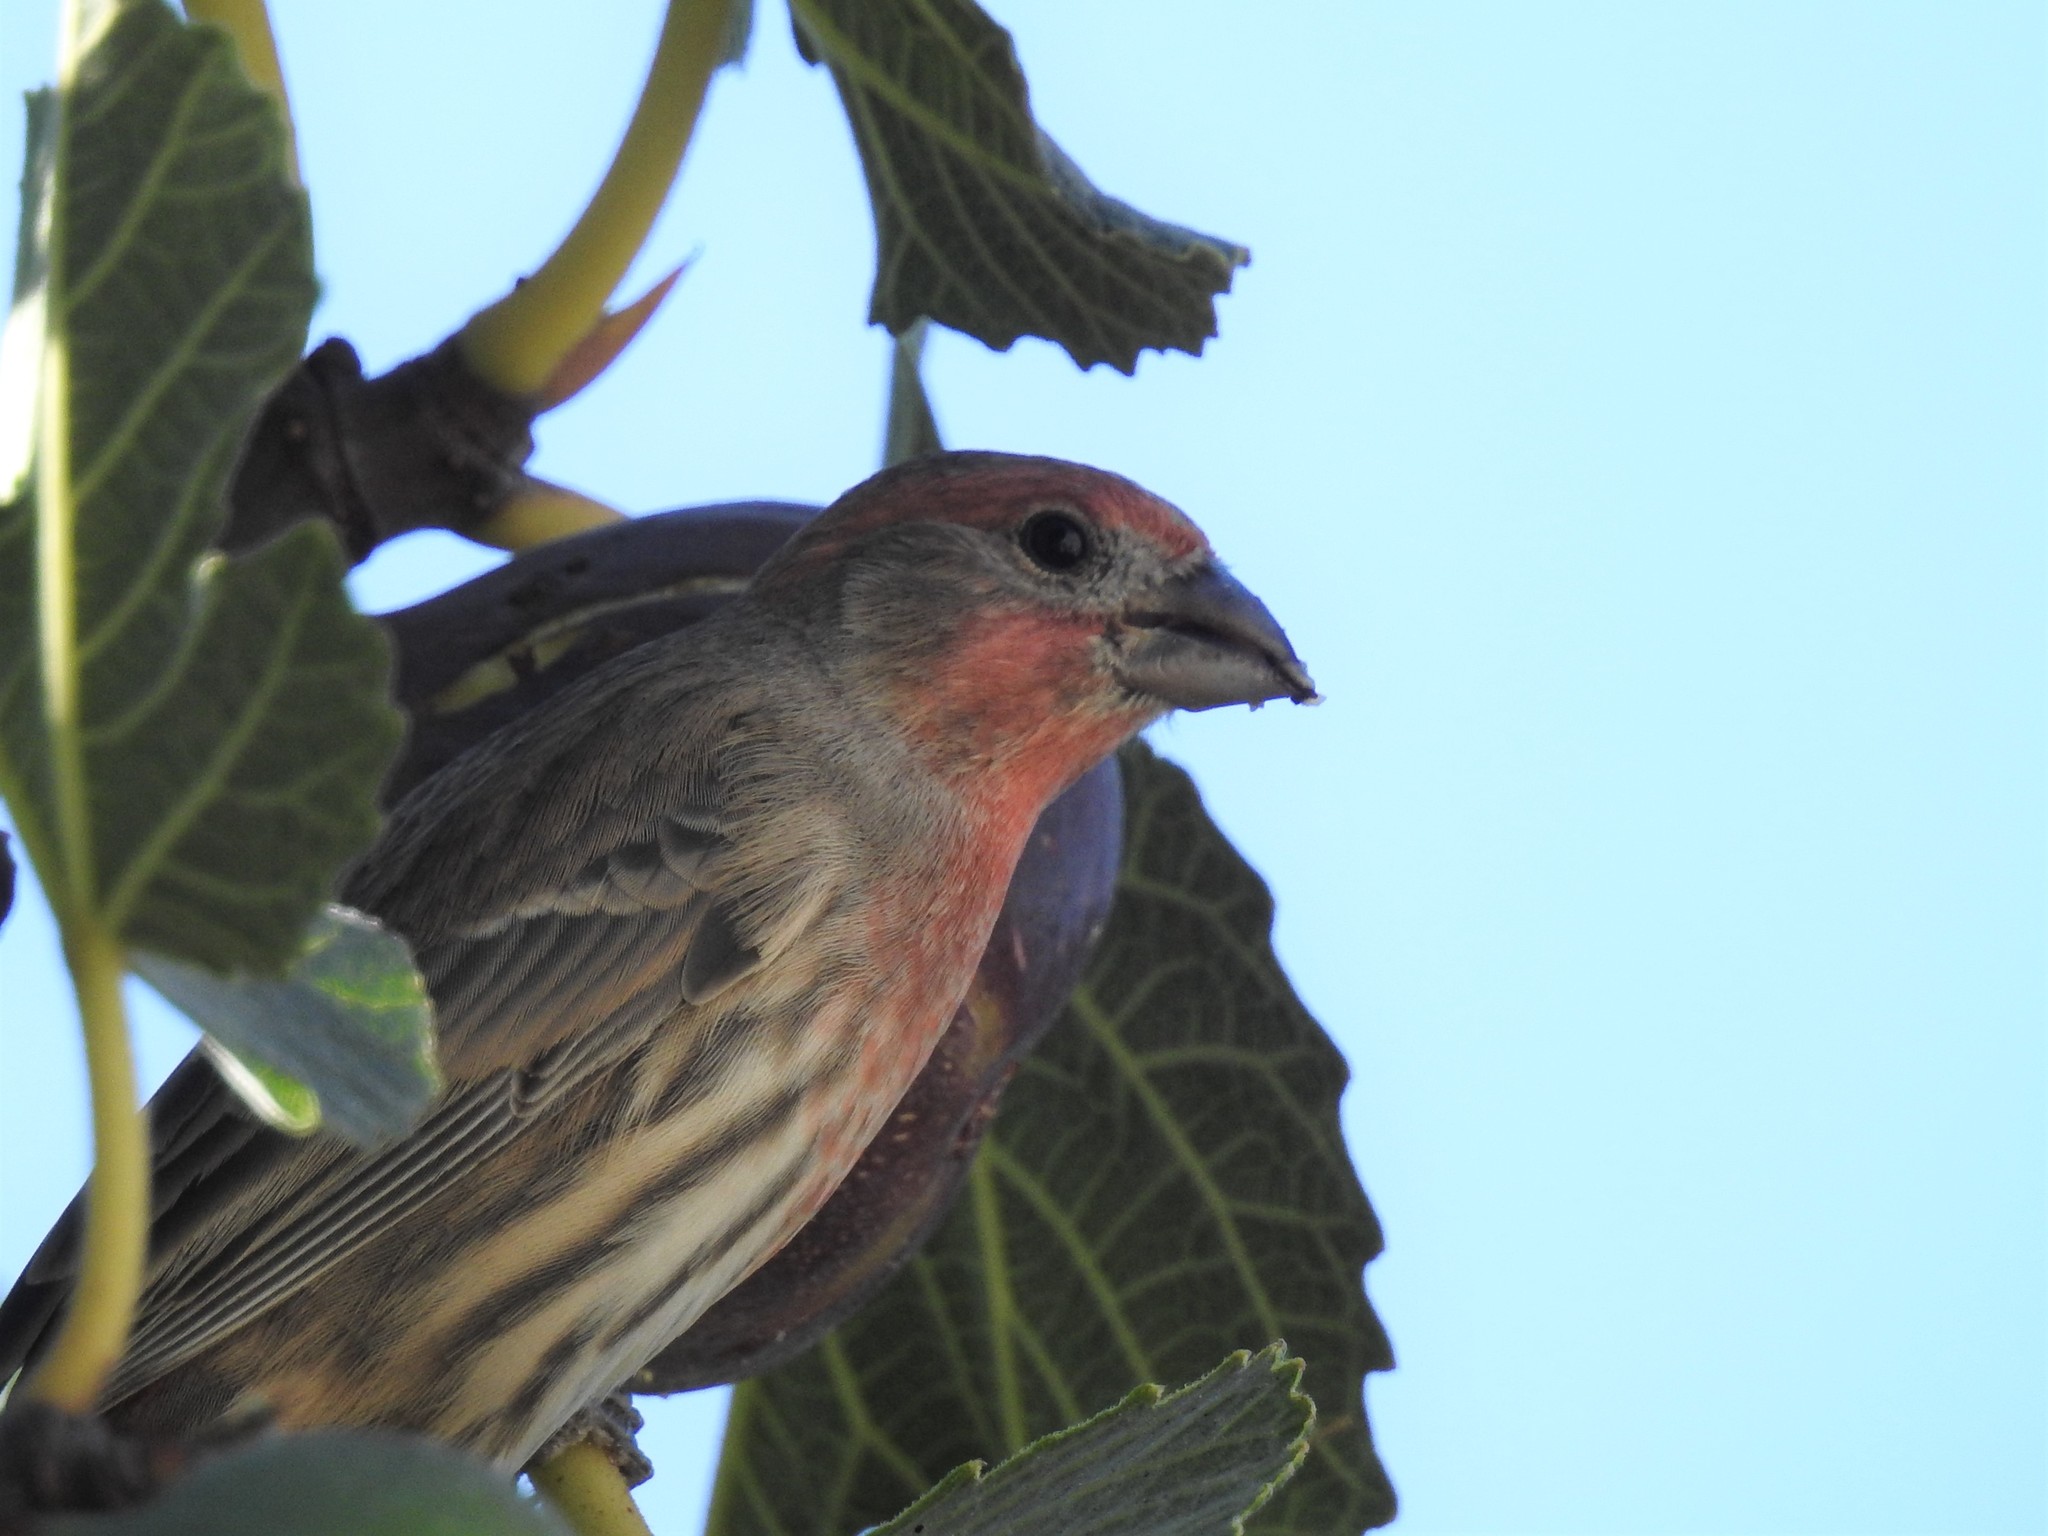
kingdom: Animalia
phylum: Chordata
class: Aves
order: Passeriformes
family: Fringillidae
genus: Haemorhous
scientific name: Haemorhous mexicanus
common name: House finch
